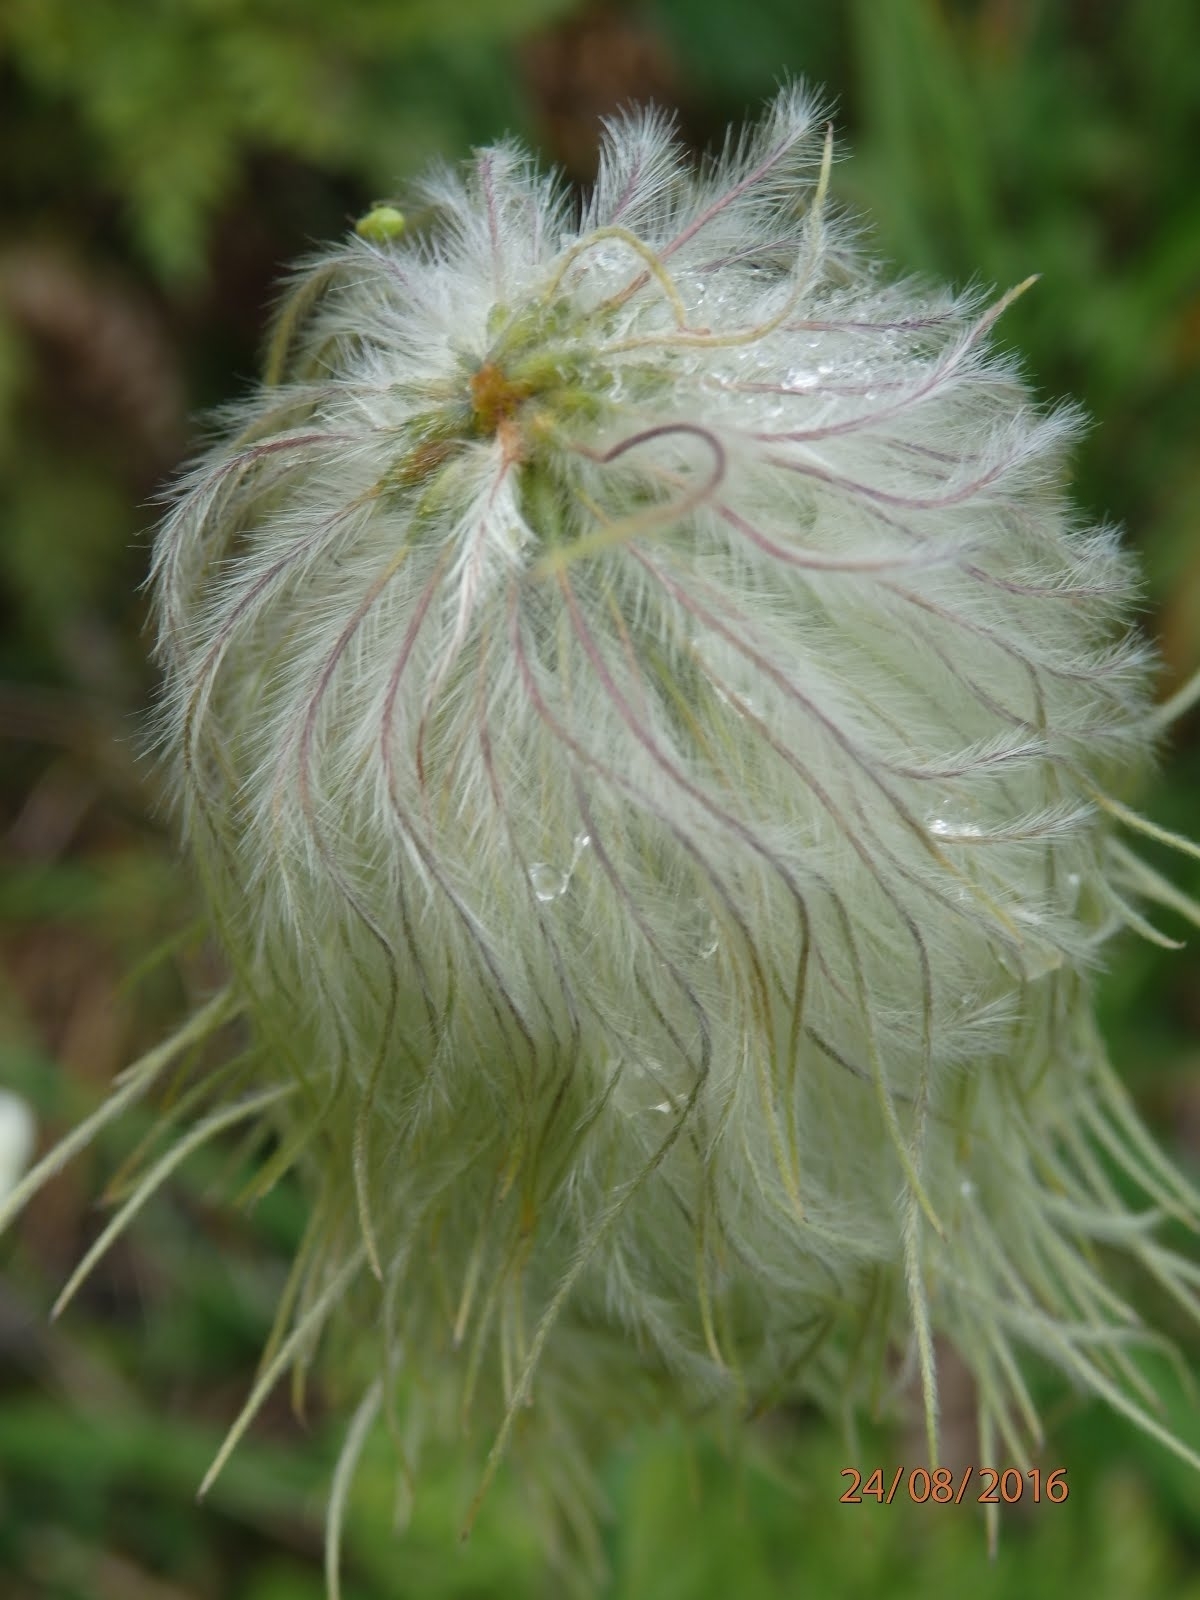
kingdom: Plantae
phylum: Tracheophyta
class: Magnoliopsida
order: Ranunculales
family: Ranunculaceae
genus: Pulsatilla
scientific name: Pulsatilla occidentalis
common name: Mountain pasqueflower
